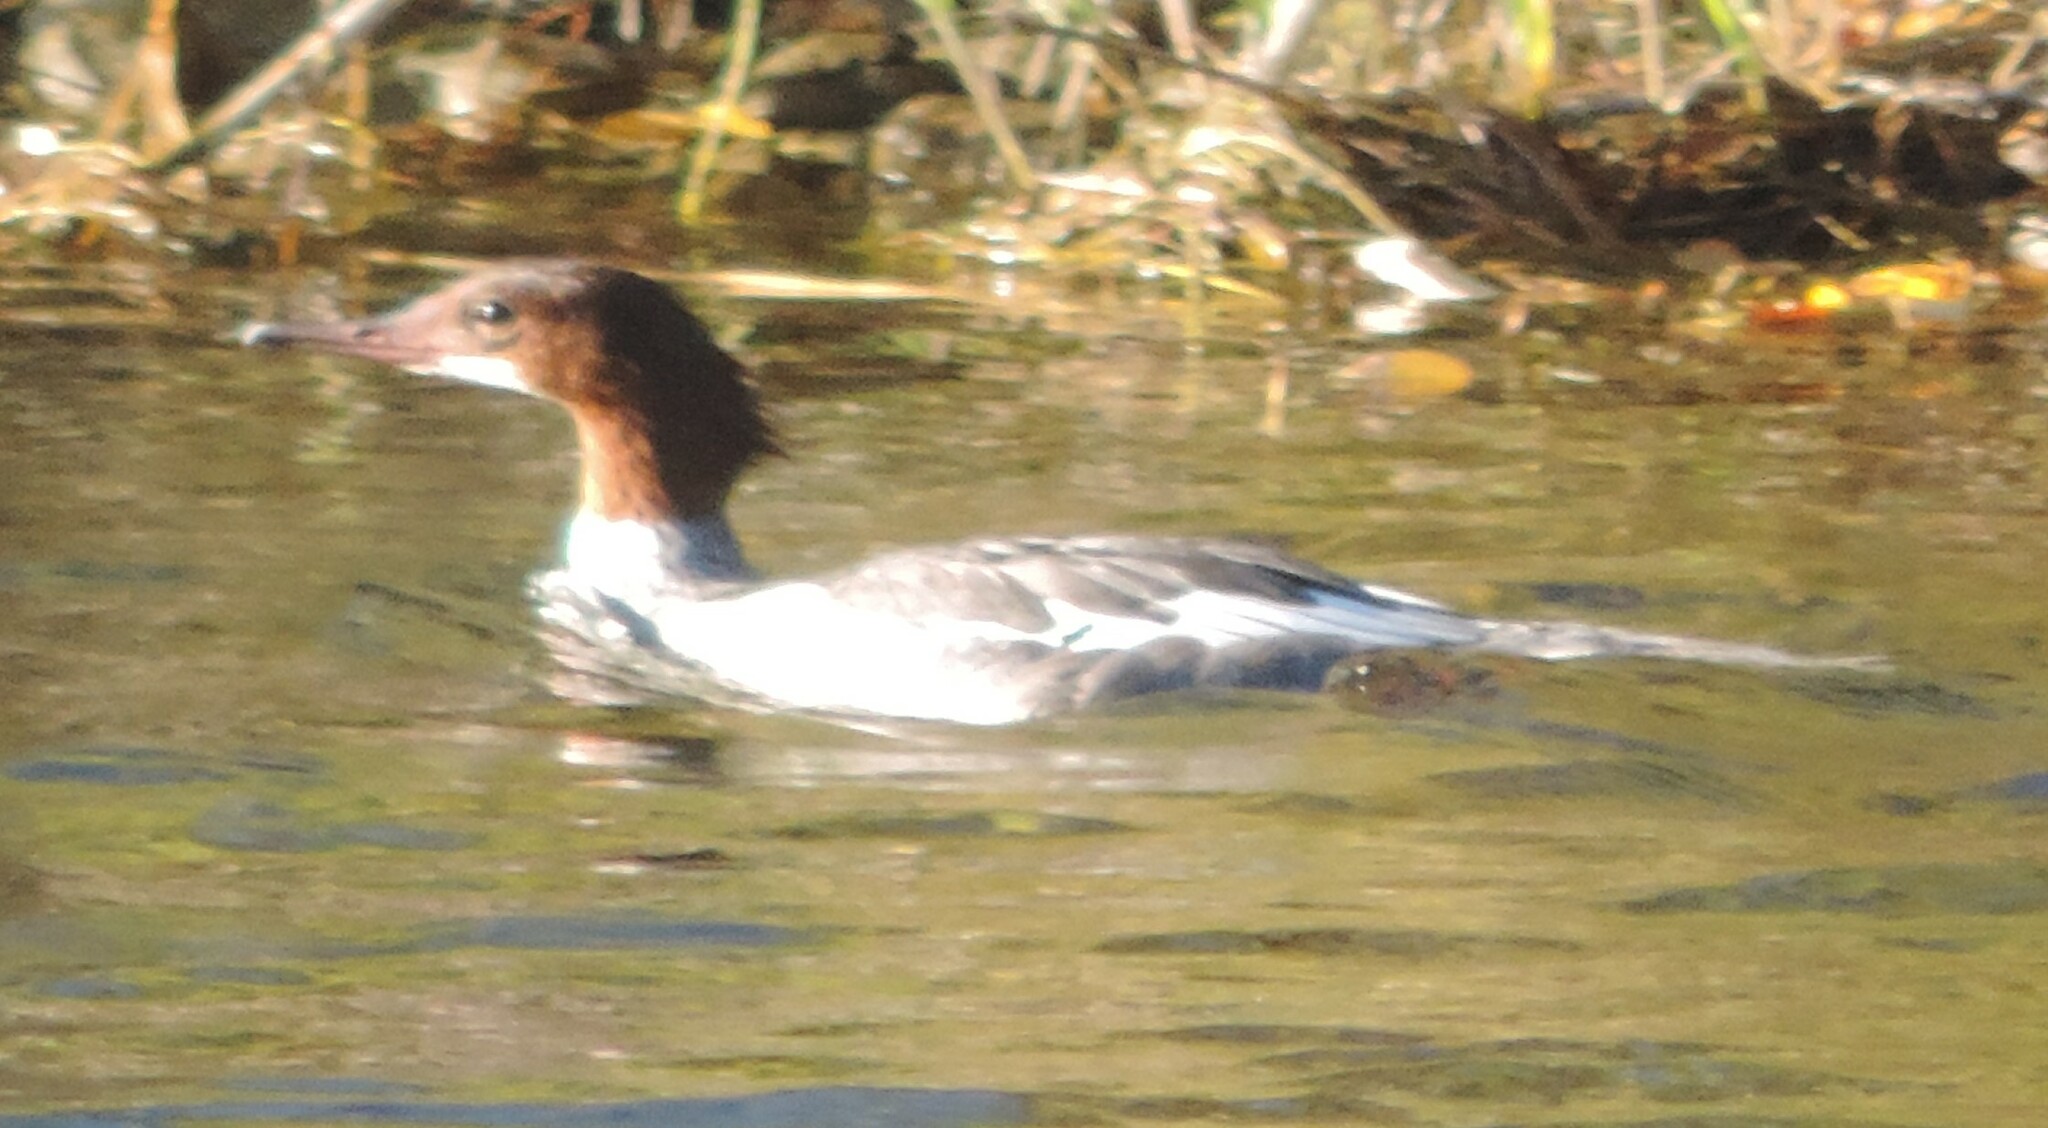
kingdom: Animalia
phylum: Chordata
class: Aves
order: Anseriformes
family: Anatidae
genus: Mergus
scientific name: Mergus merganser
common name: Common merganser
